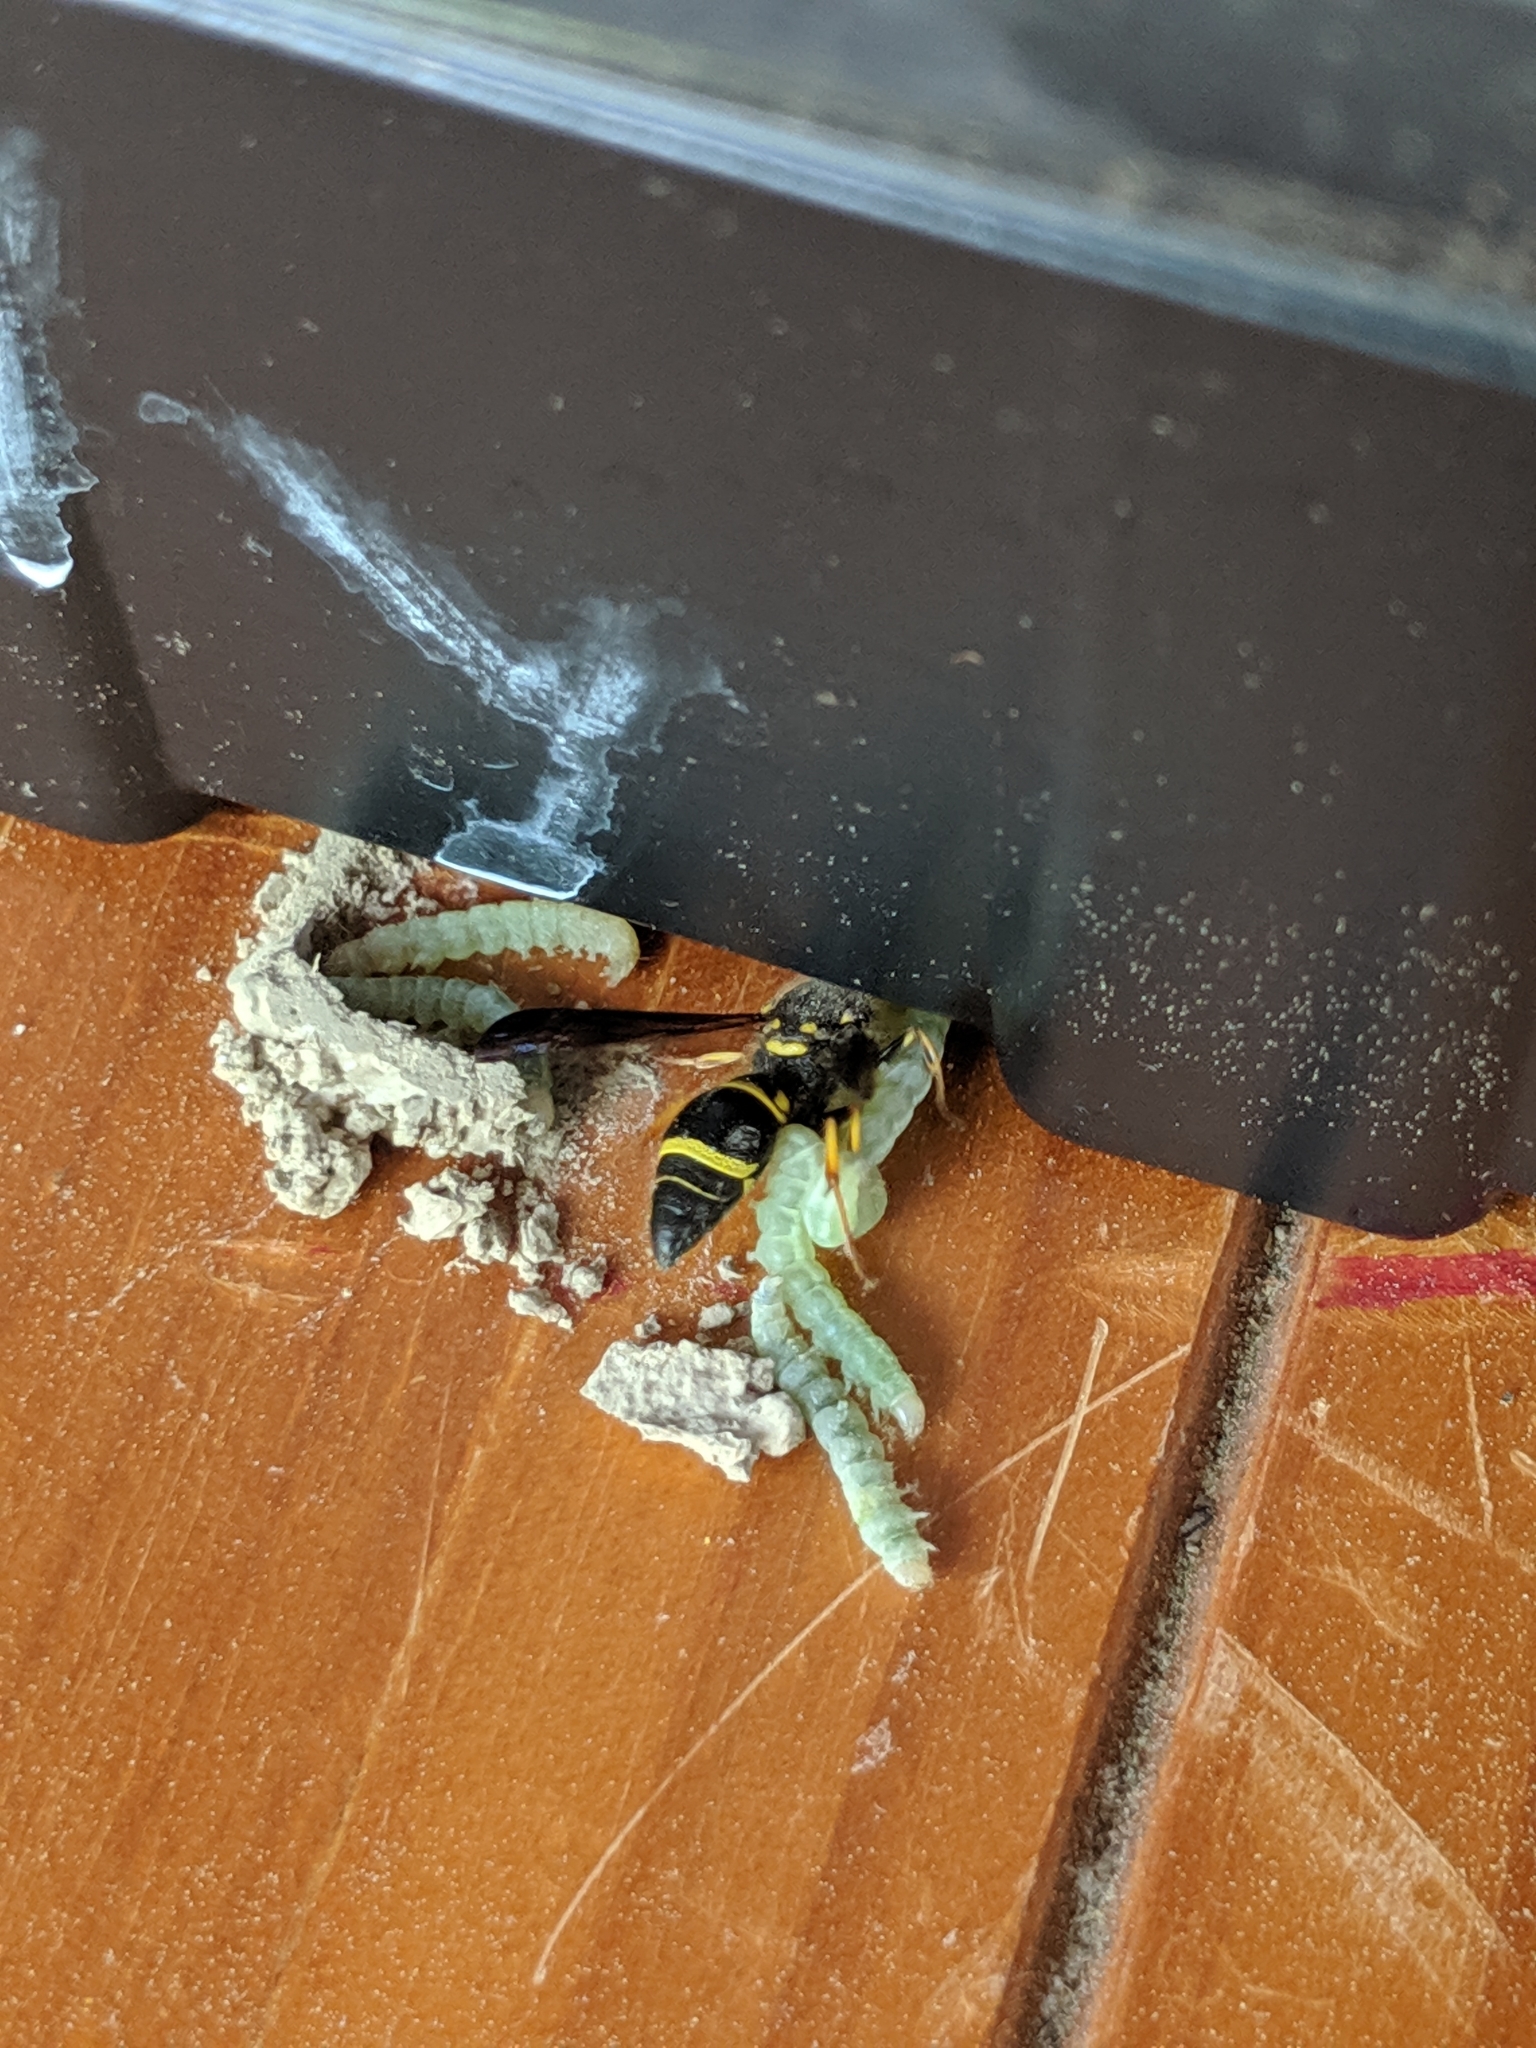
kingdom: Animalia
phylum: Arthropoda
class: Insecta
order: Hymenoptera
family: Vespidae
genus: Ancistrocerus
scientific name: Ancistrocerus campestris
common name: Smiling mason wasp
